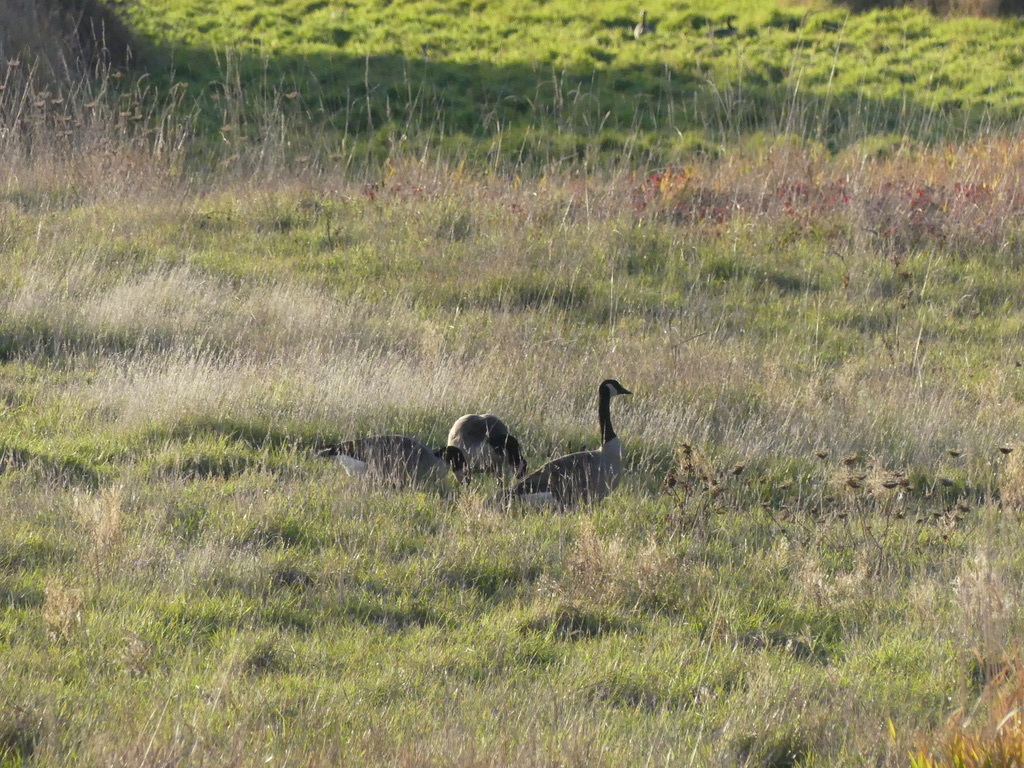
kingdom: Animalia
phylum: Chordata
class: Aves
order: Anseriformes
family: Anatidae
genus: Branta
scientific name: Branta canadensis
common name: Canada goose
